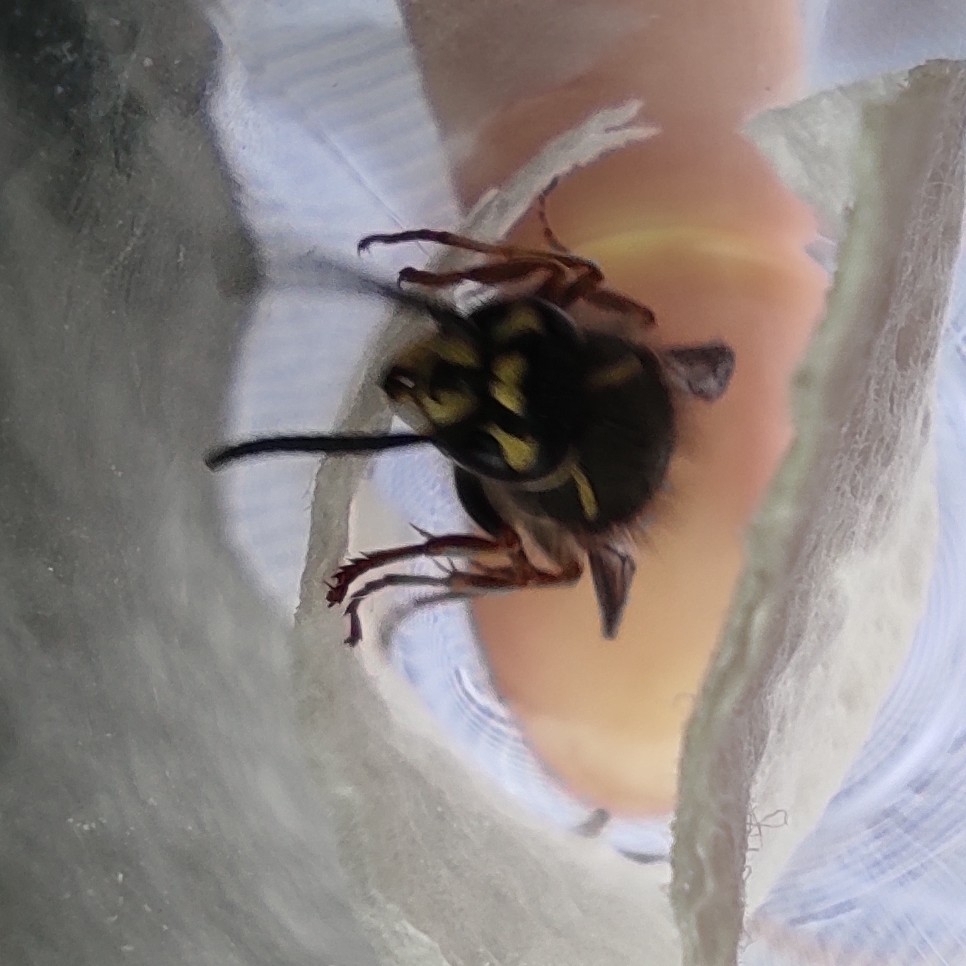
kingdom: Animalia
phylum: Arthropoda
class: Insecta
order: Hymenoptera
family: Vespidae
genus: Vespula
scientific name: Vespula vulgaris
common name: Common wasp
